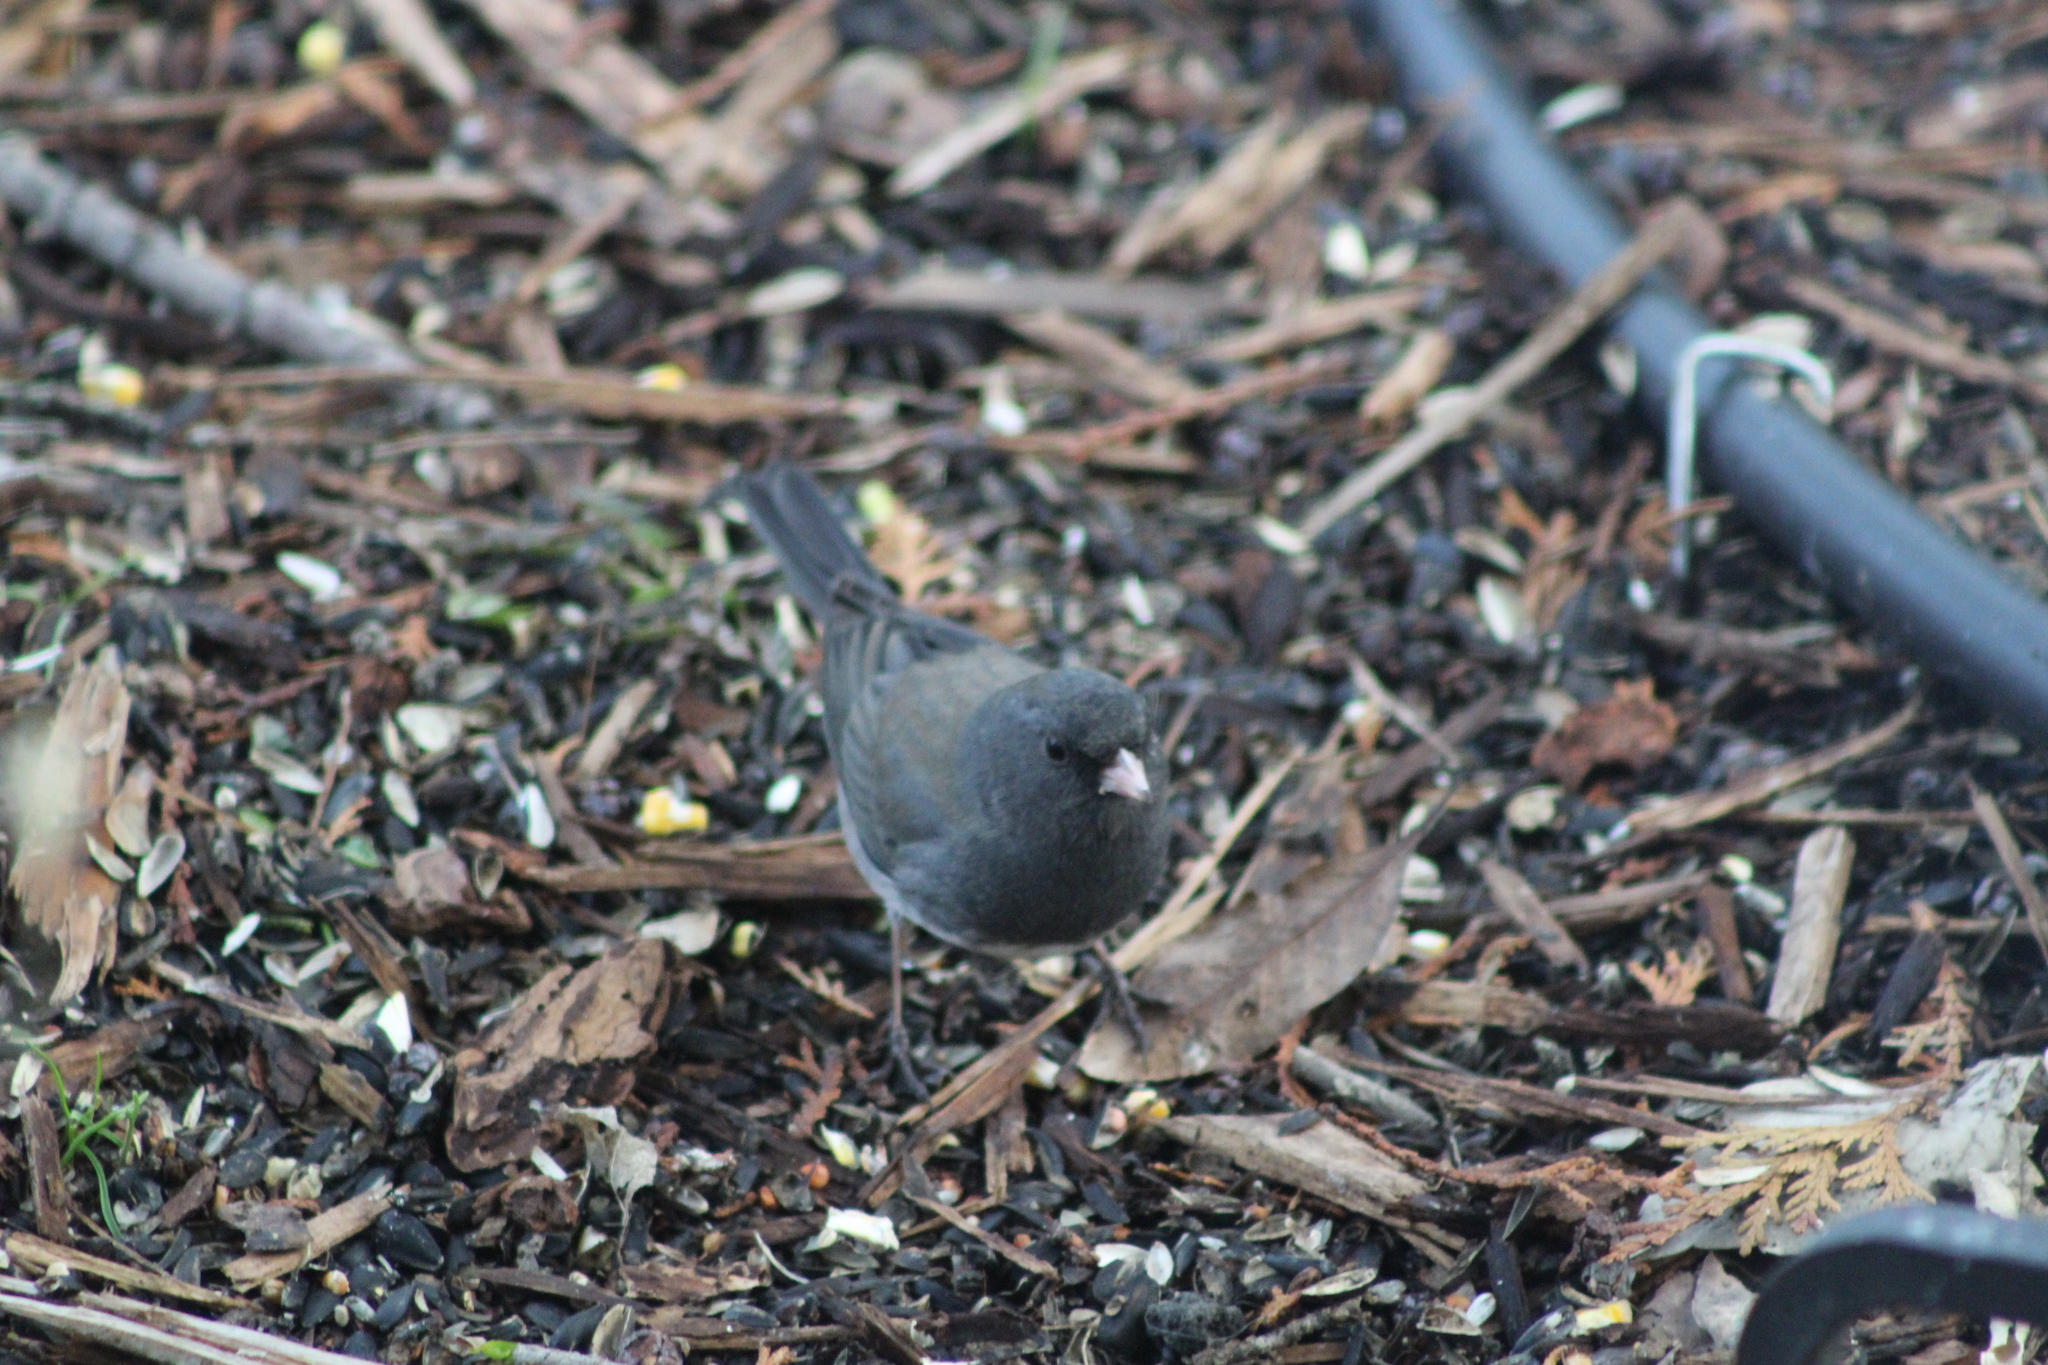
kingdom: Animalia
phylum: Chordata
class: Aves
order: Passeriformes
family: Passerellidae
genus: Junco
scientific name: Junco hyemalis
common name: Dark-eyed junco
